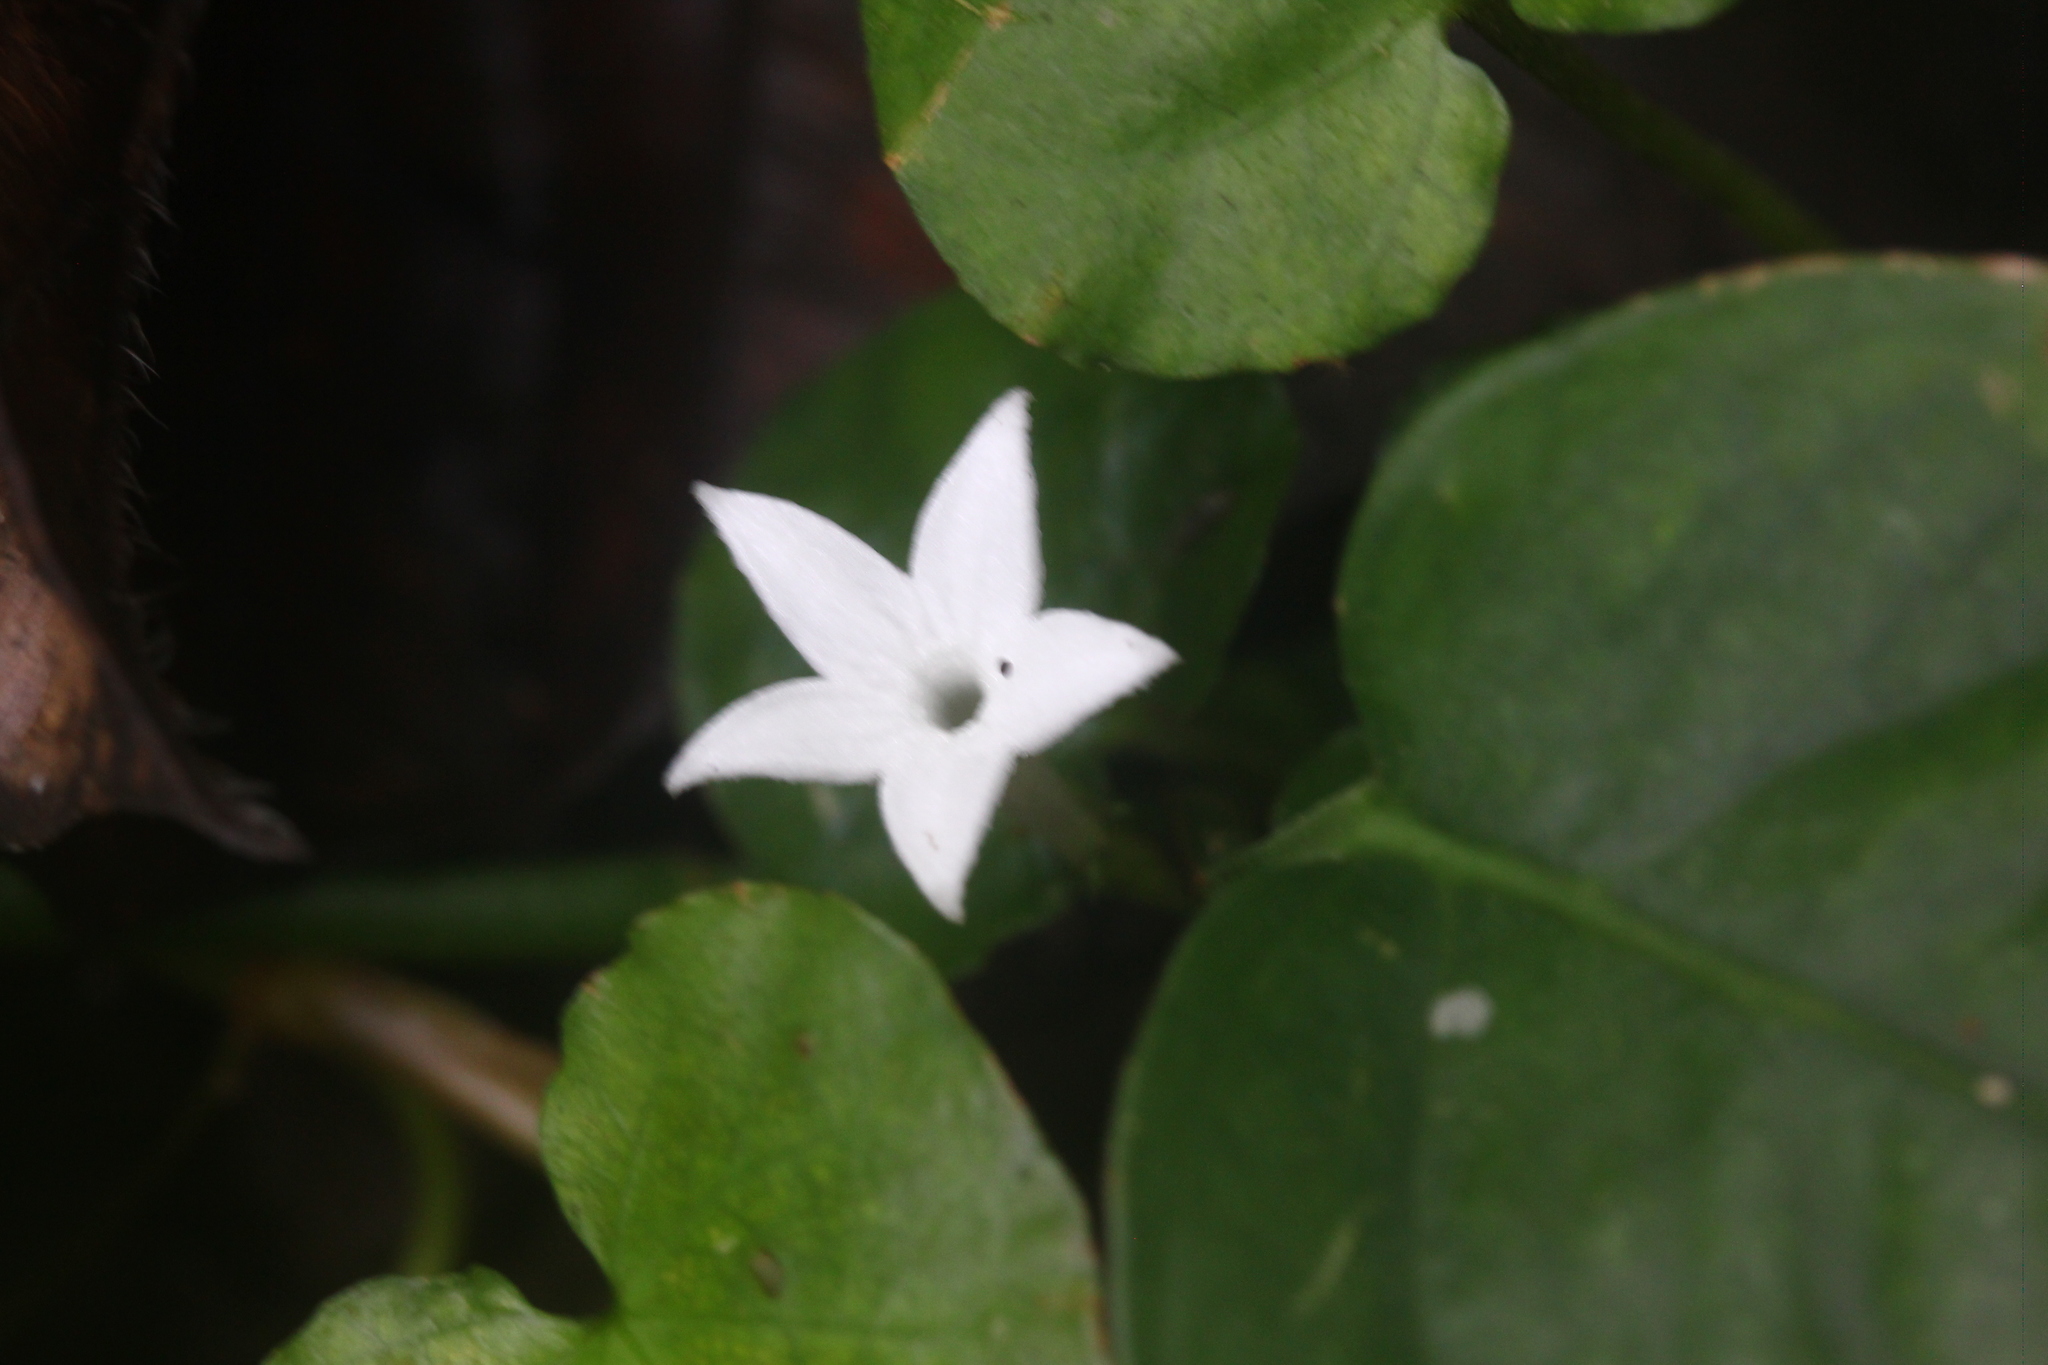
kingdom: Plantae
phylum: Tracheophyta
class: Magnoliopsida
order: Gentianales
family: Rubiaceae
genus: Geophila
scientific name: Geophila herbacea
